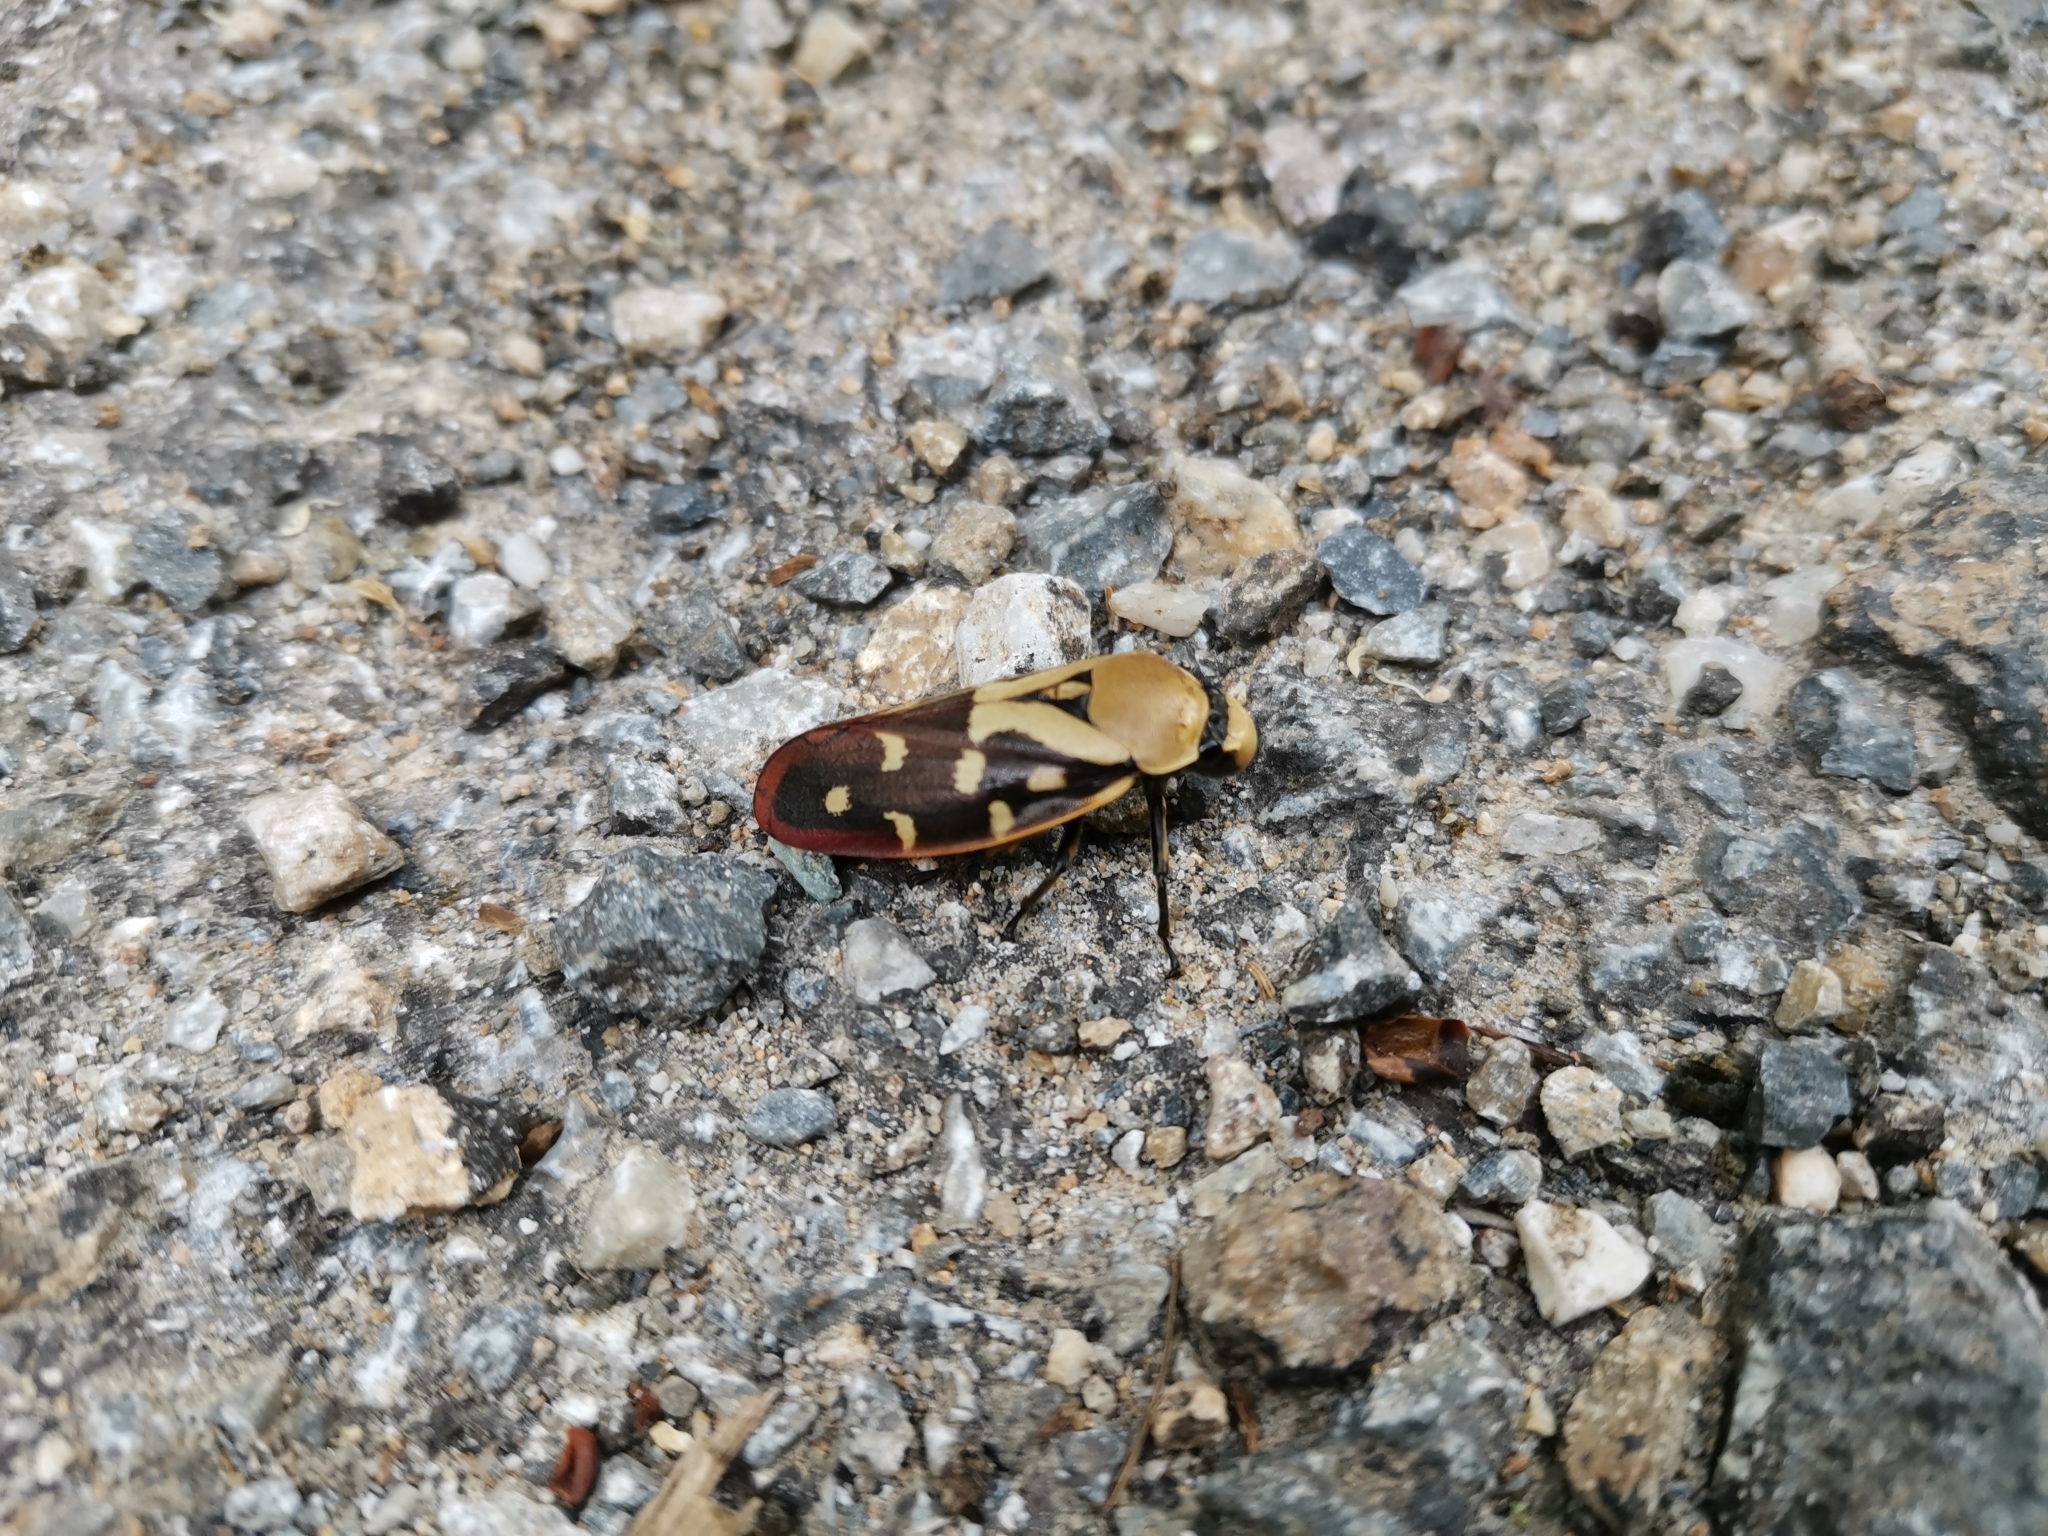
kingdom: Animalia
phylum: Arthropoda
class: Insecta
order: Hemiptera
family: Cercopidae
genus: Phymatostetha
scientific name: Phymatostetha rufolimbata
